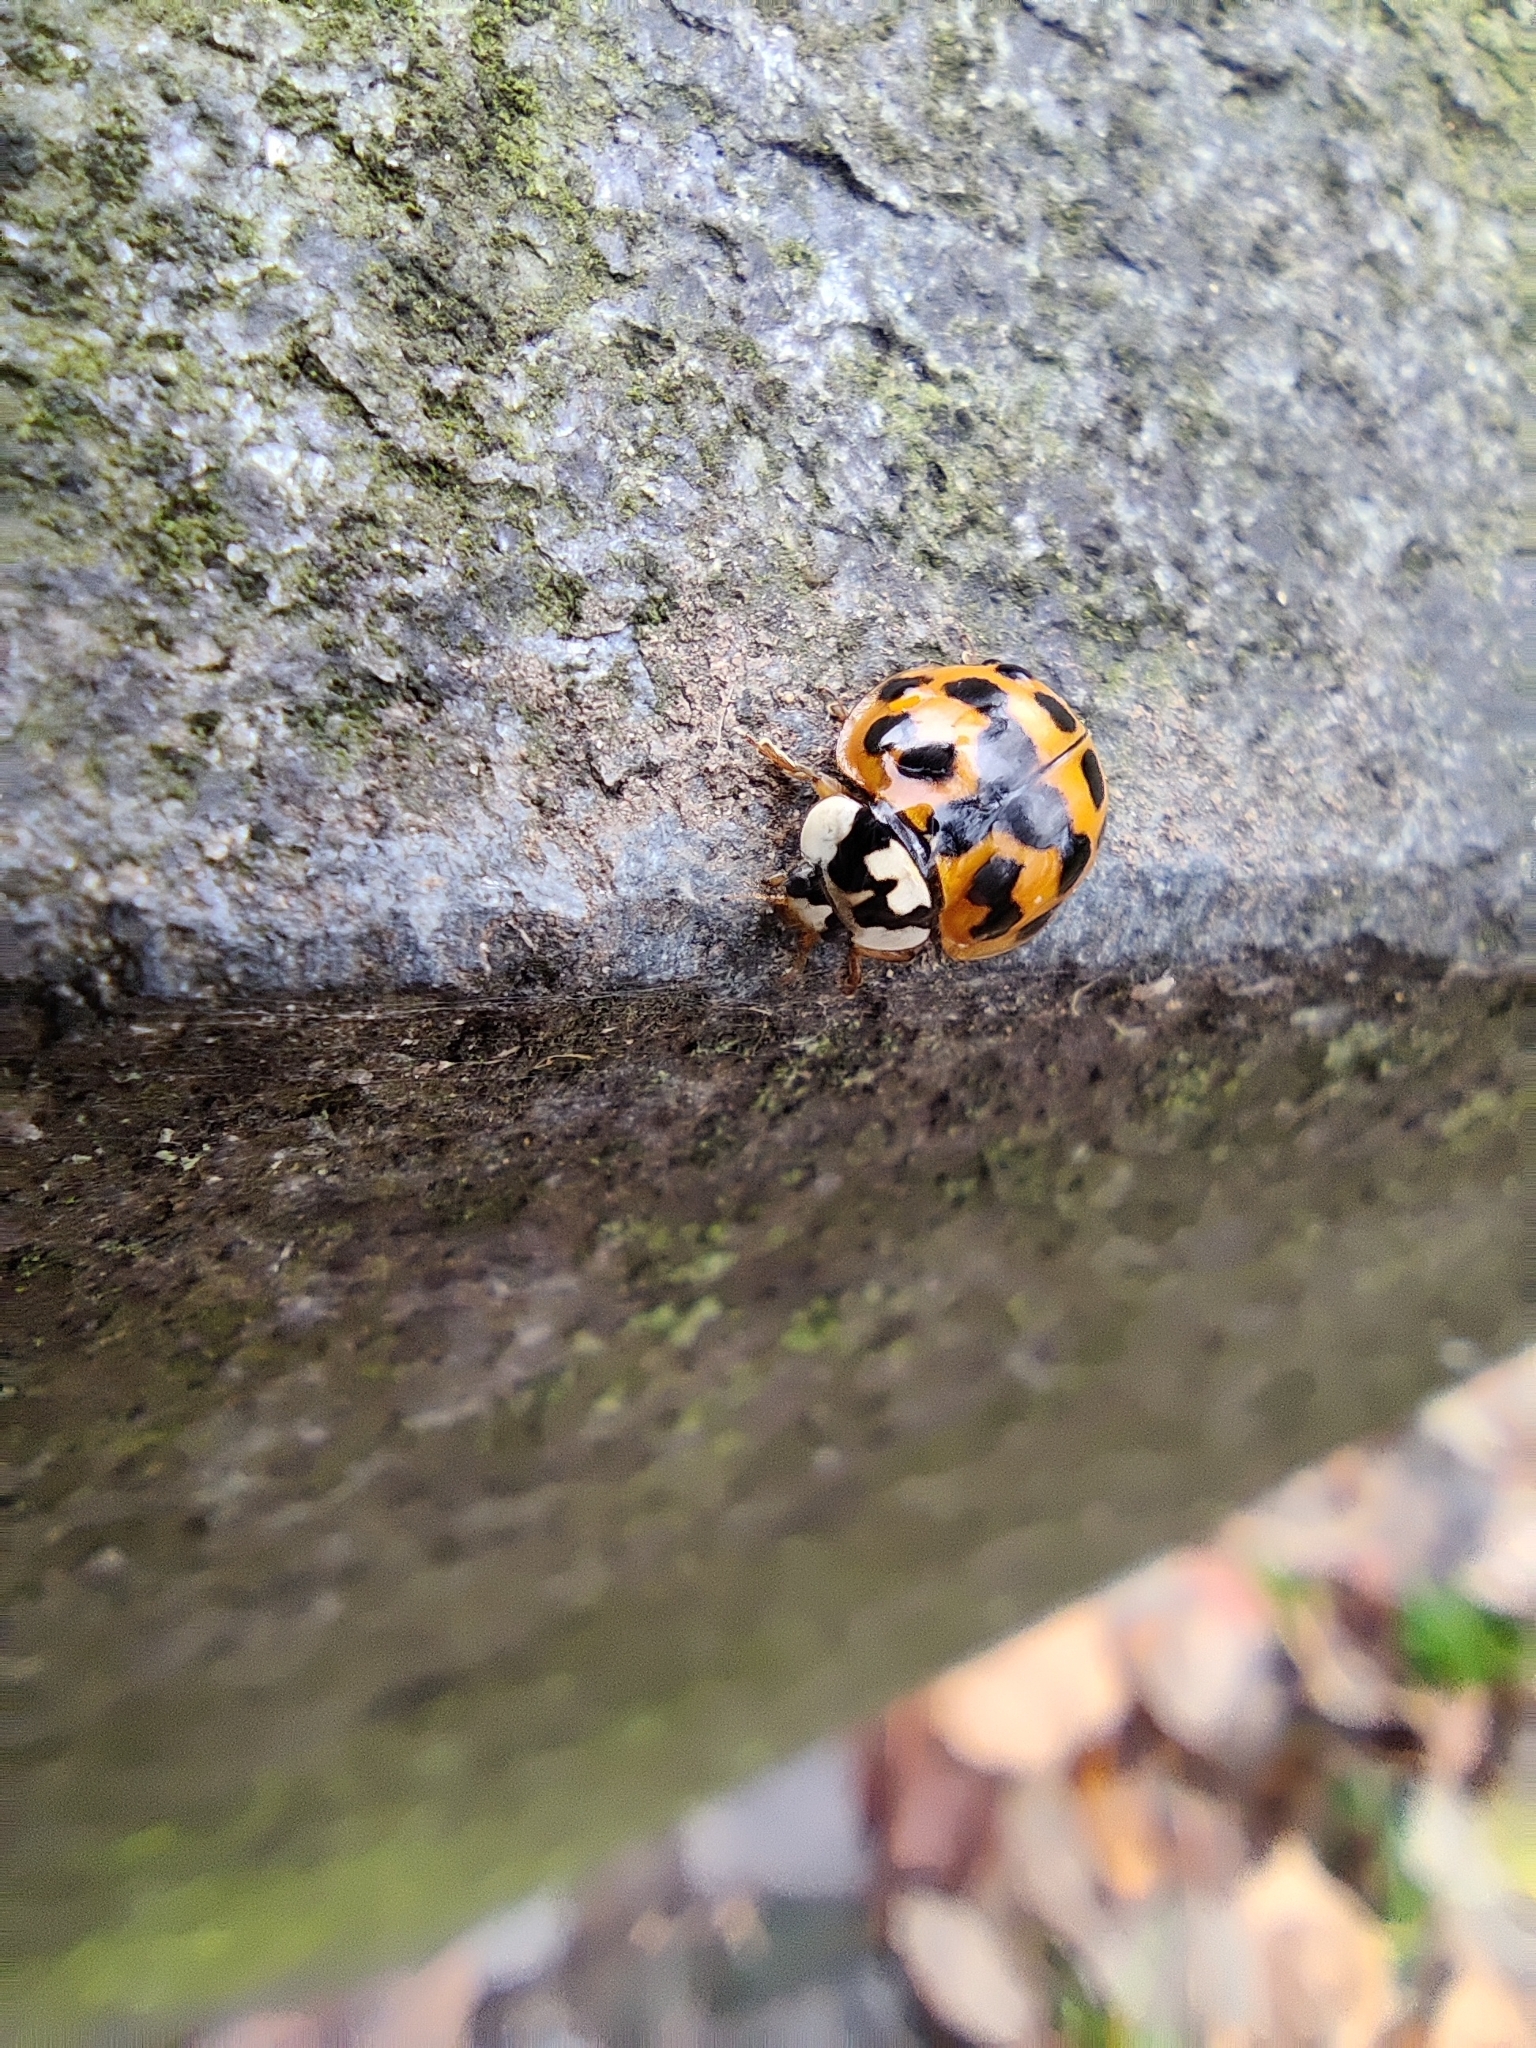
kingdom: Animalia
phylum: Arthropoda
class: Insecta
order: Coleoptera
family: Coccinellidae
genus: Harmonia
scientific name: Harmonia axyridis
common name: Harlequin ladybird
